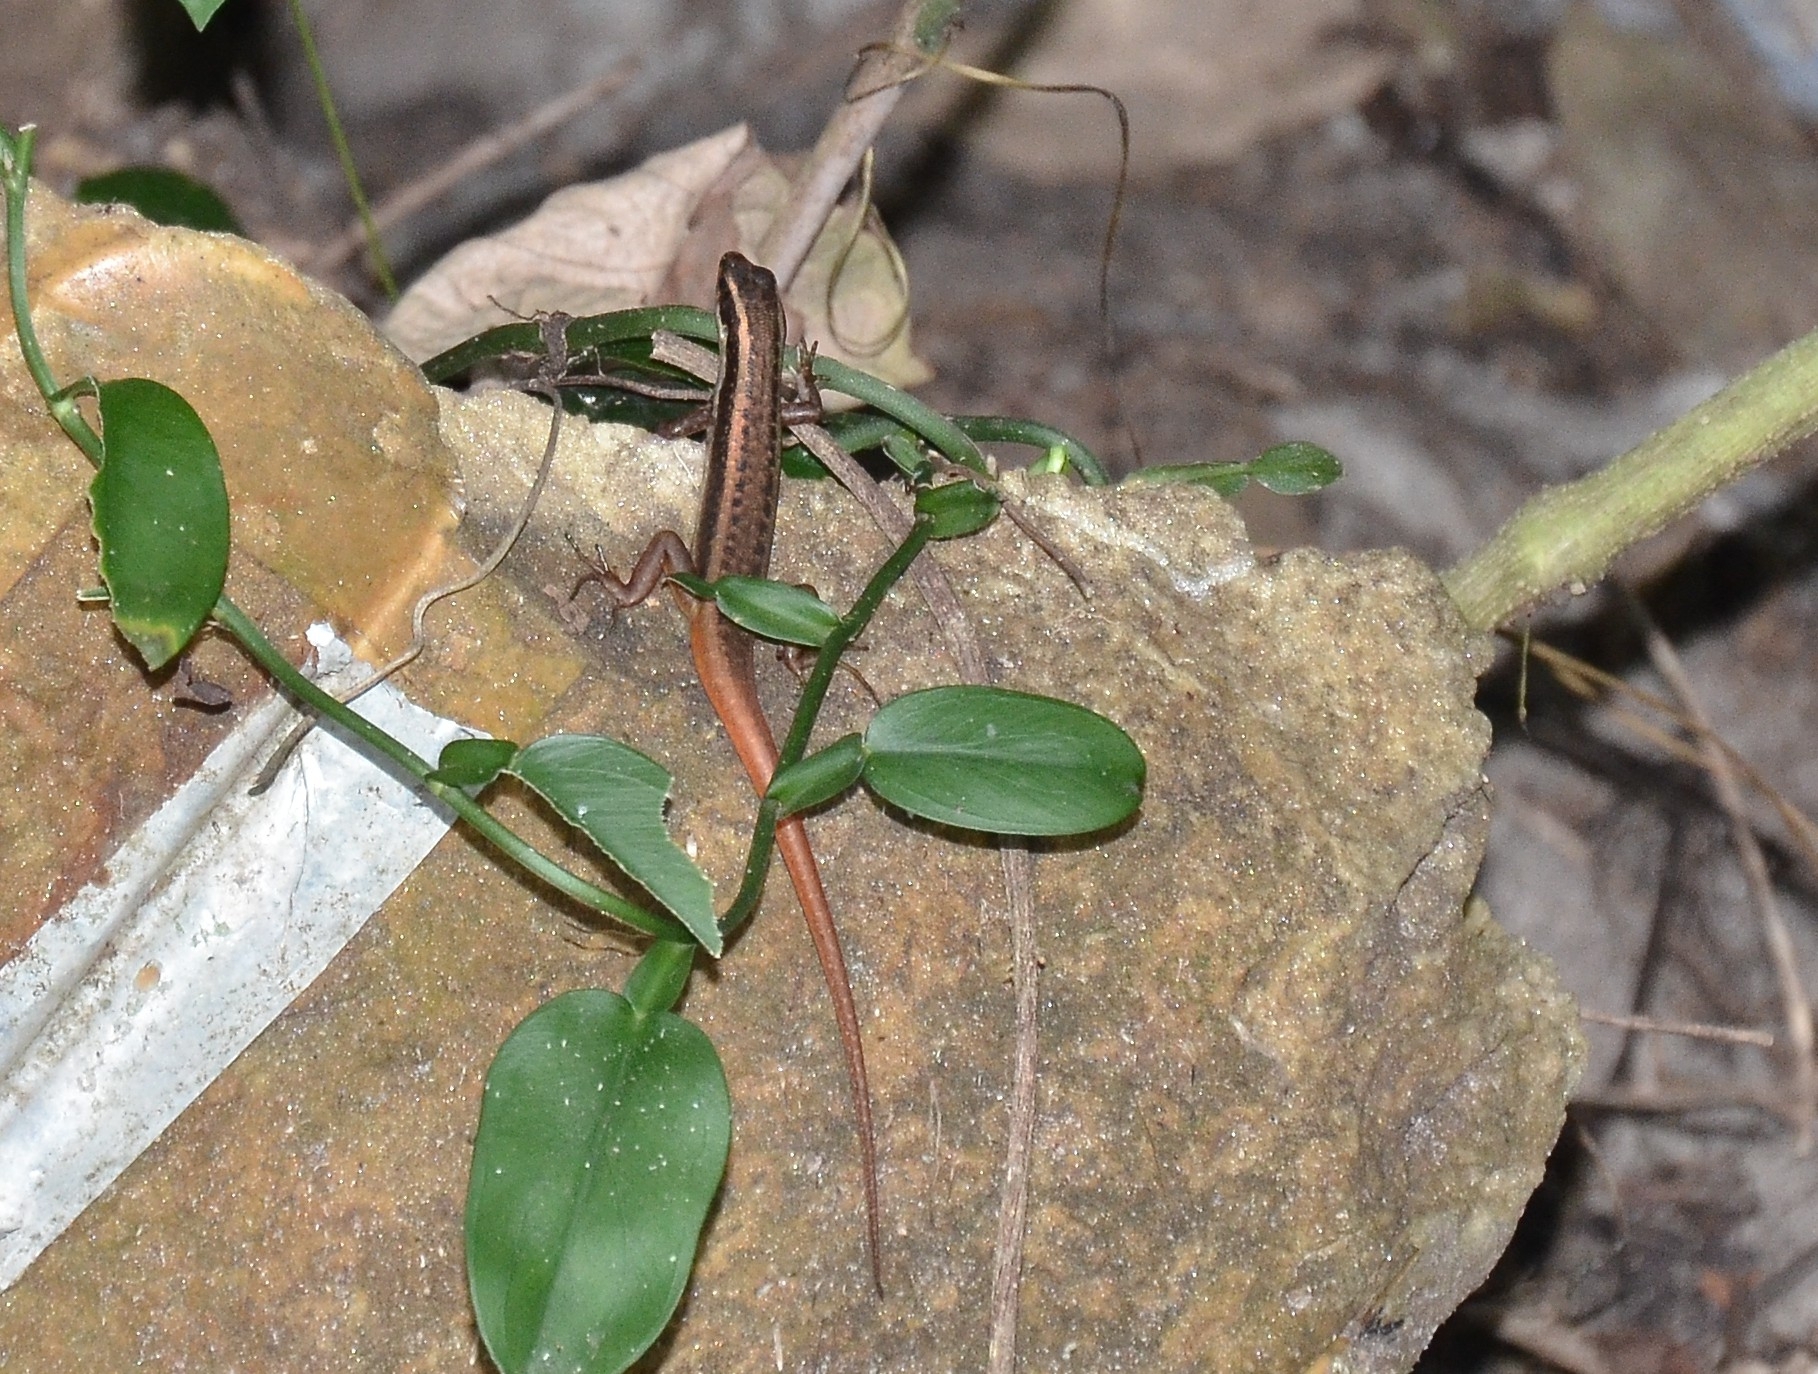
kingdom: Animalia
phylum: Chordata
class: Squamata
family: Scincidae
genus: Sphenomorphus
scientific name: Sphenomorphus dussumieri
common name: Dussumier's forest skink
